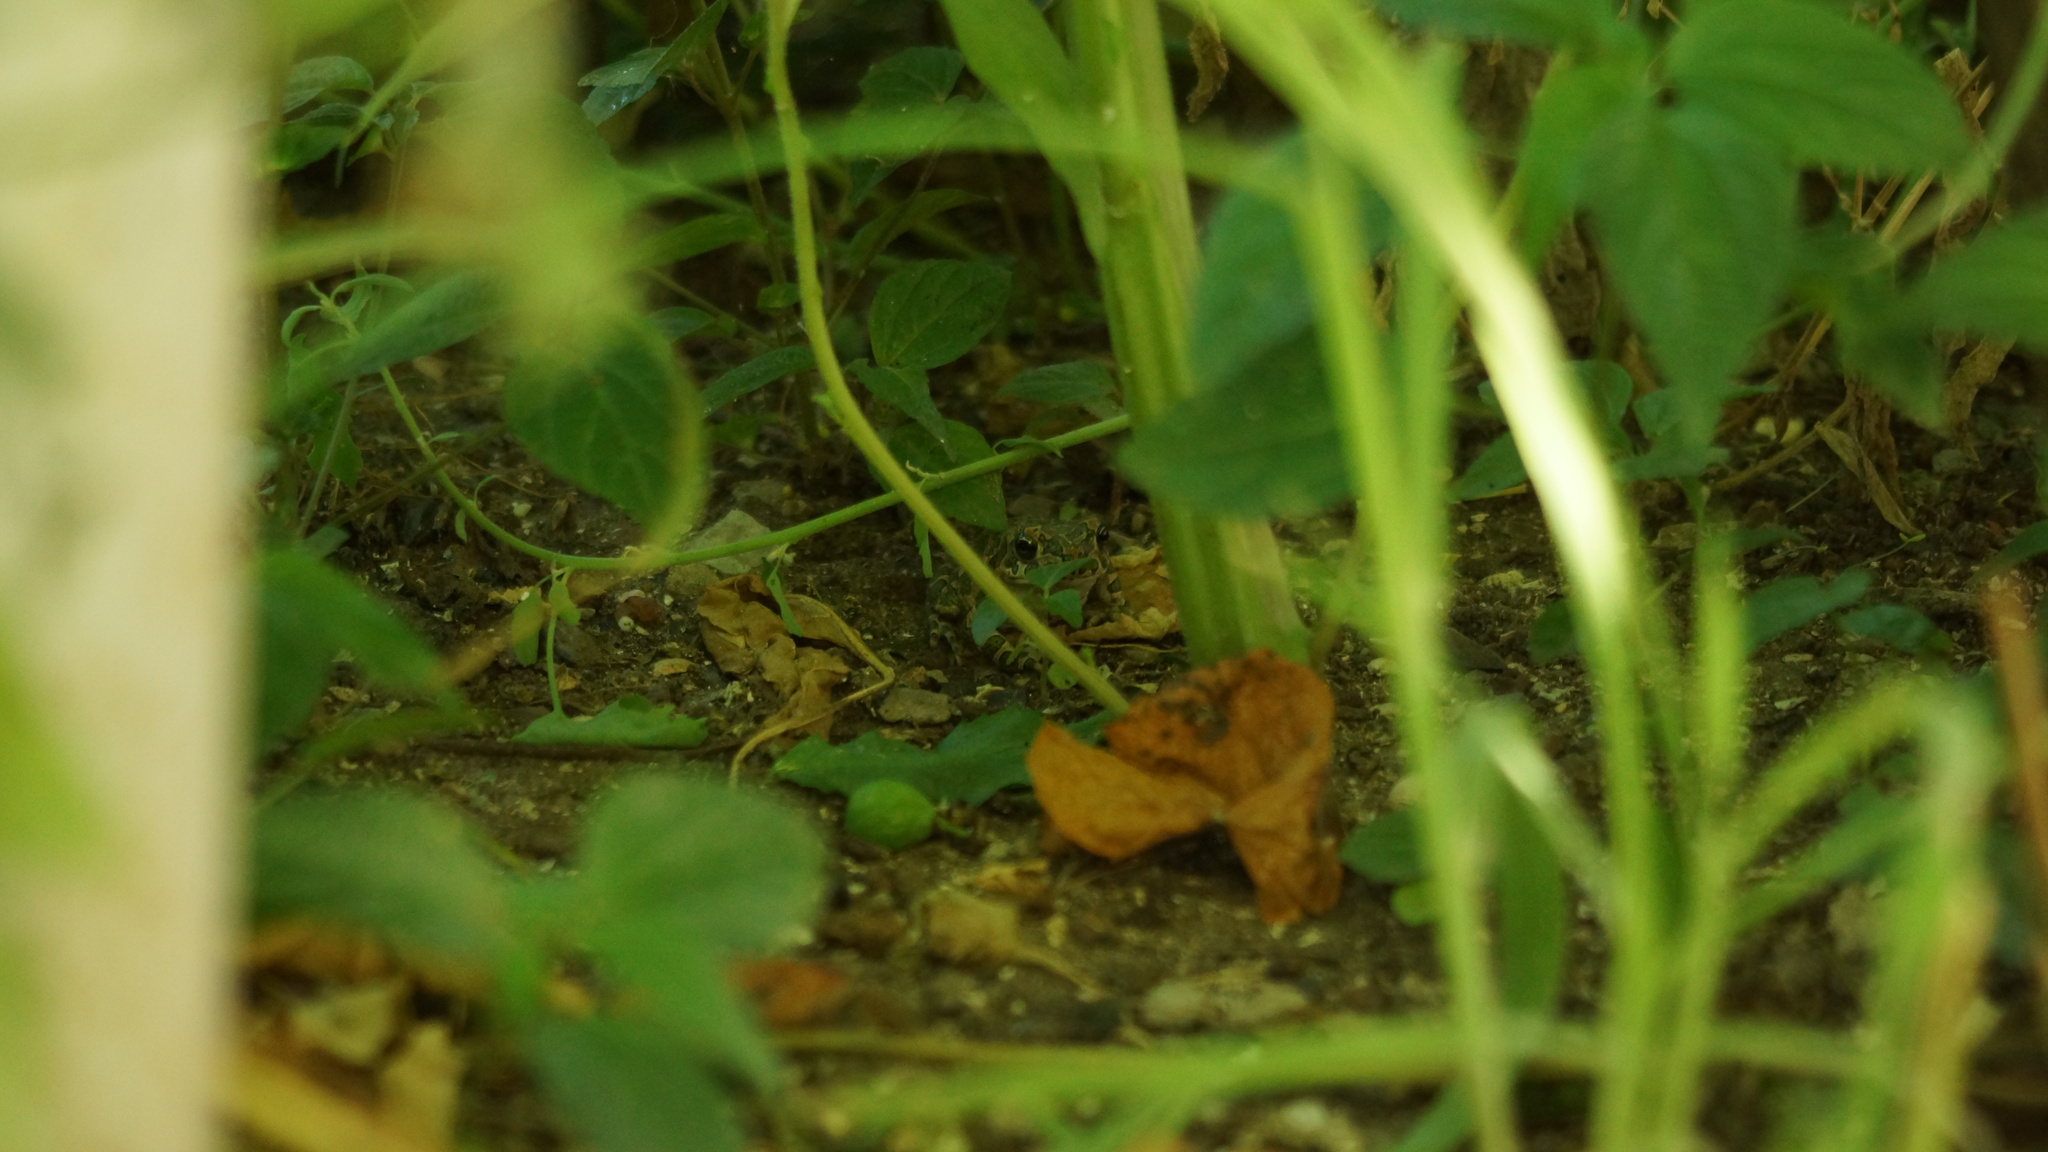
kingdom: Animalia
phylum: Chordata
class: Amphibia
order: Anura
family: Bufonidae
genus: Bufotes
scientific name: Bufotes viridis
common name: European green toad
